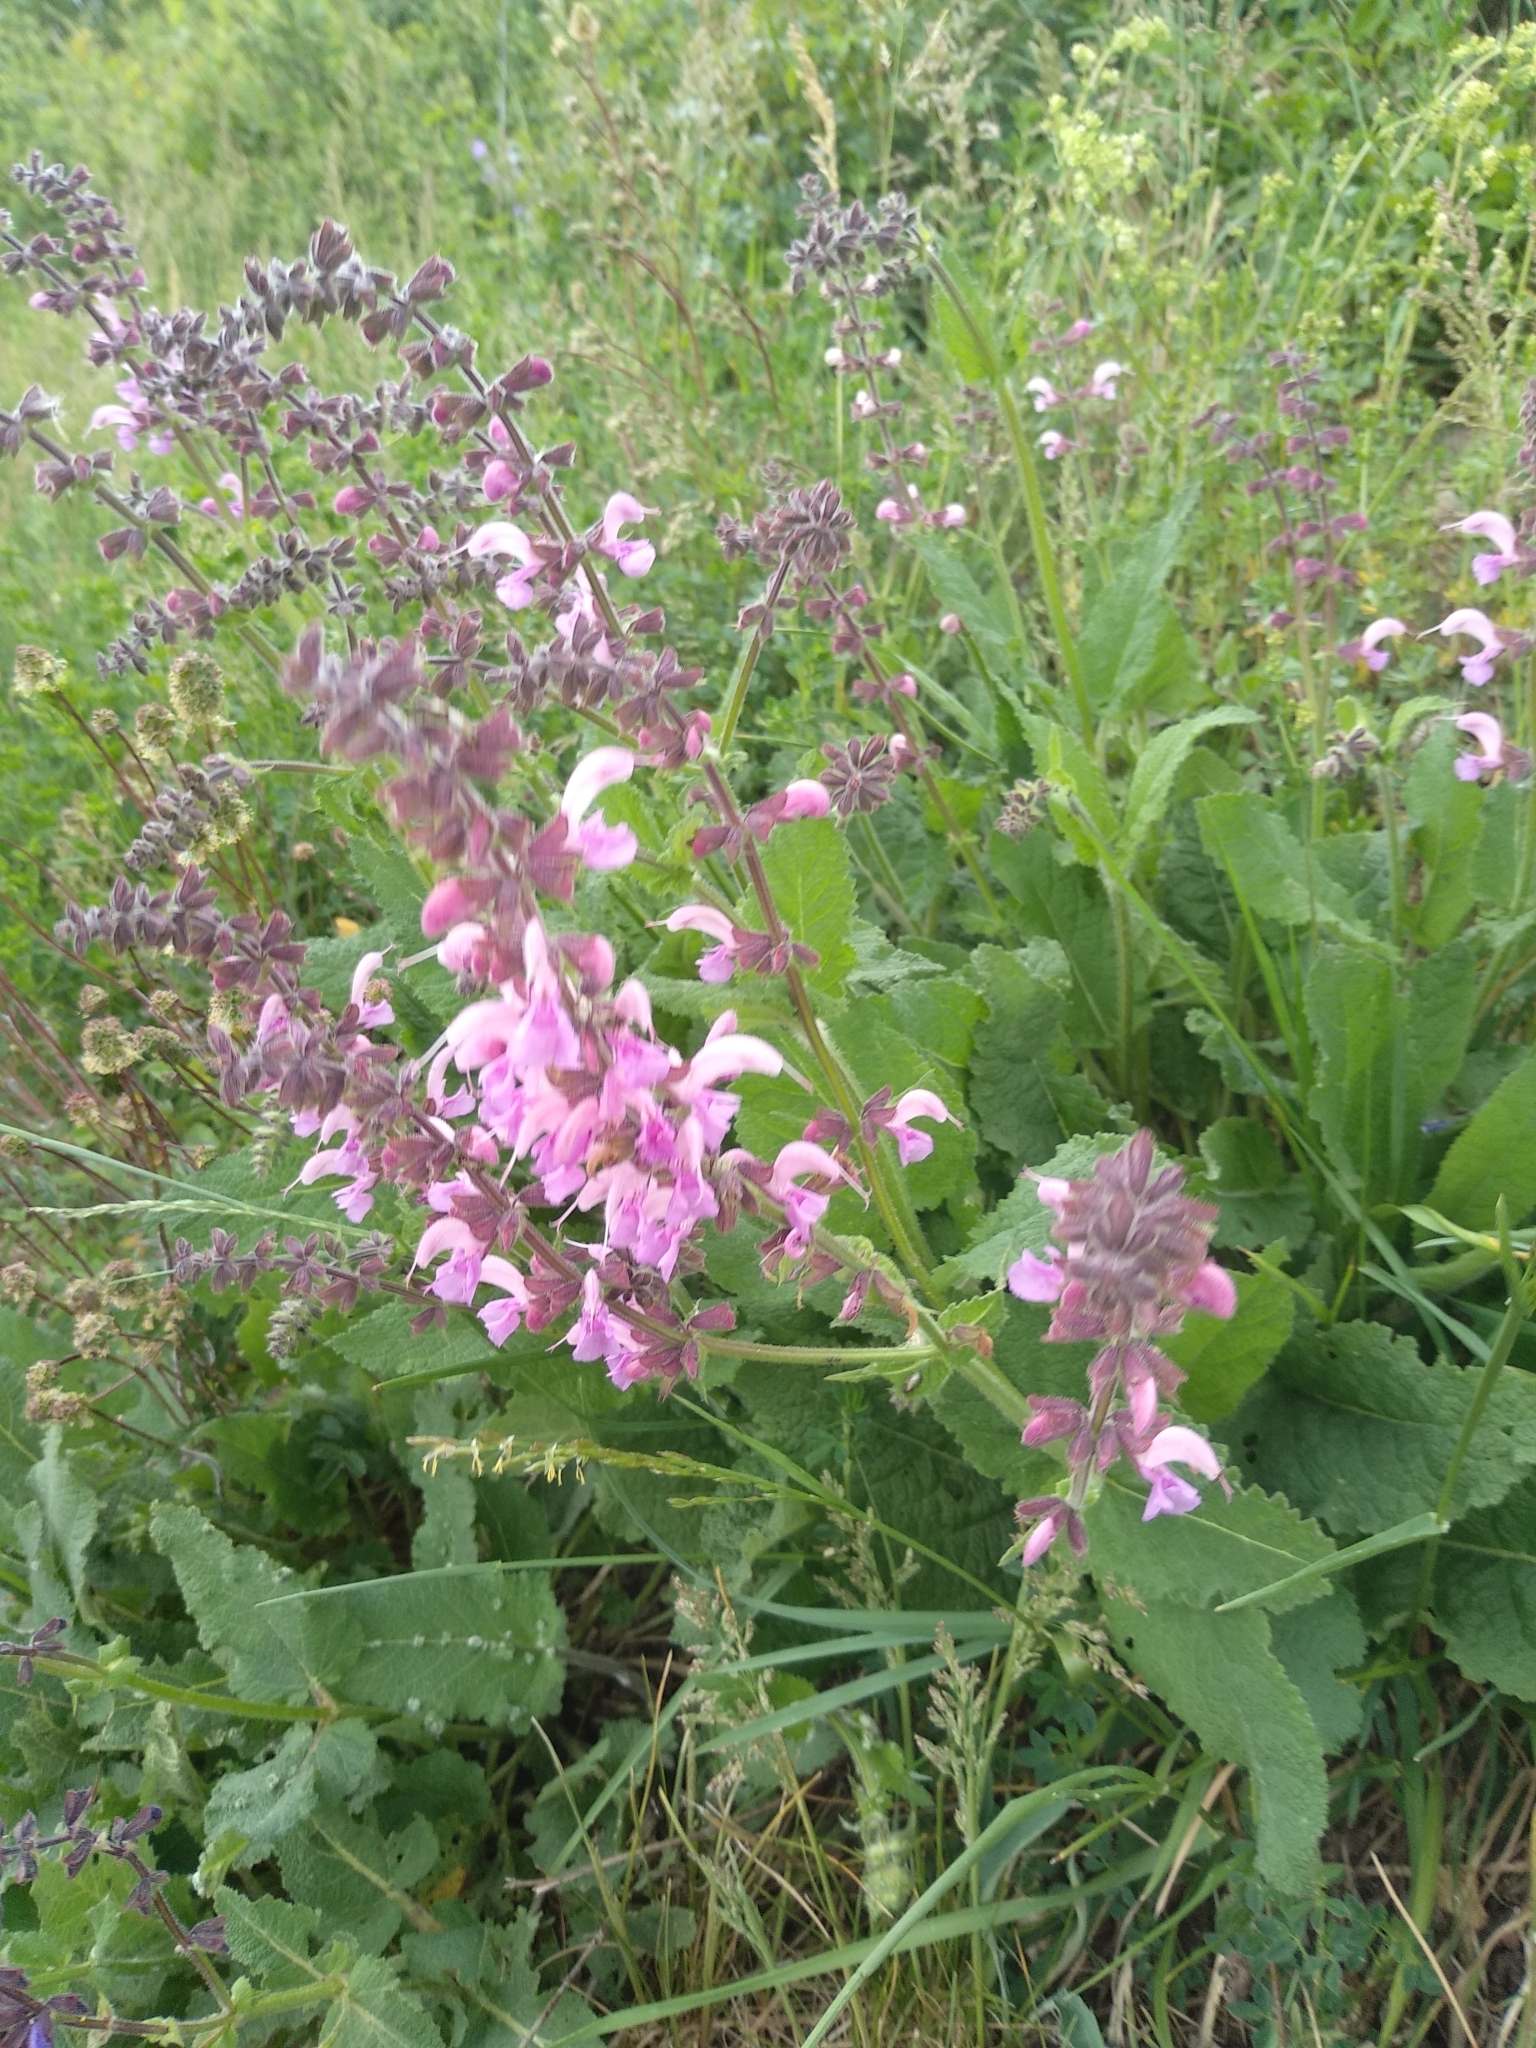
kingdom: Plantae
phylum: Tracheophyta
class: Magnoliopsida
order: Lamiales
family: Lamiaceae
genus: Salvia
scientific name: Salvia pratensis
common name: Meadow sage
